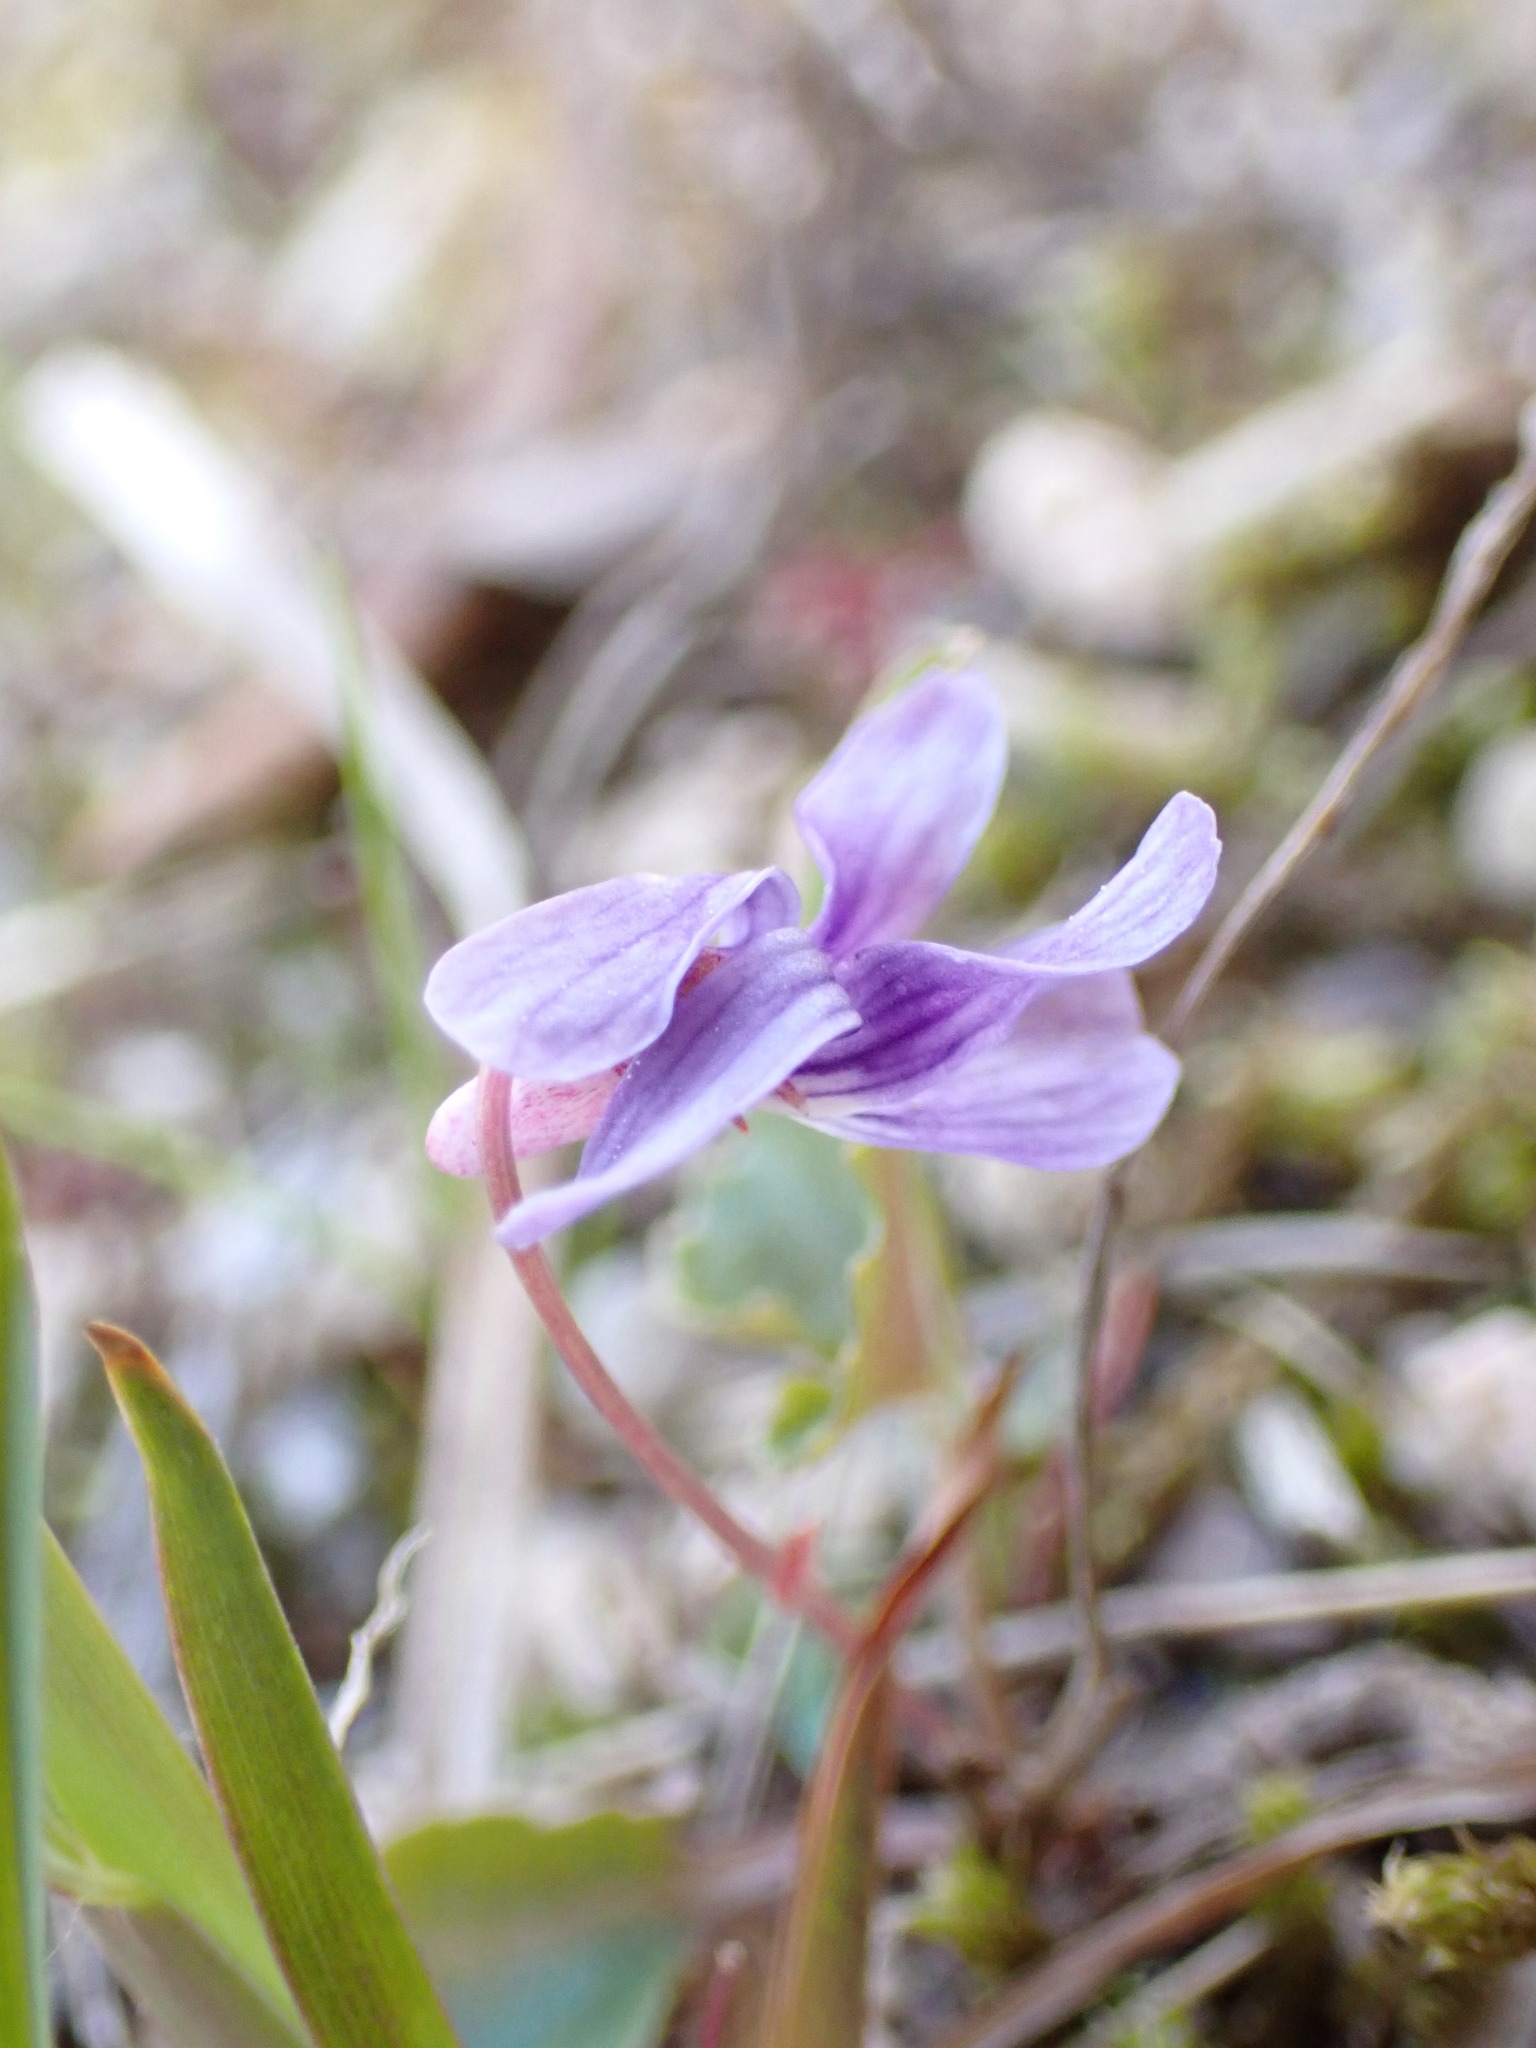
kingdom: Plantae
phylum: Tracheophyta
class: Magnoliopsida
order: Malpighiales
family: Violaceae
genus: Viola
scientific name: Viola japonica
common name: Japanese violet
